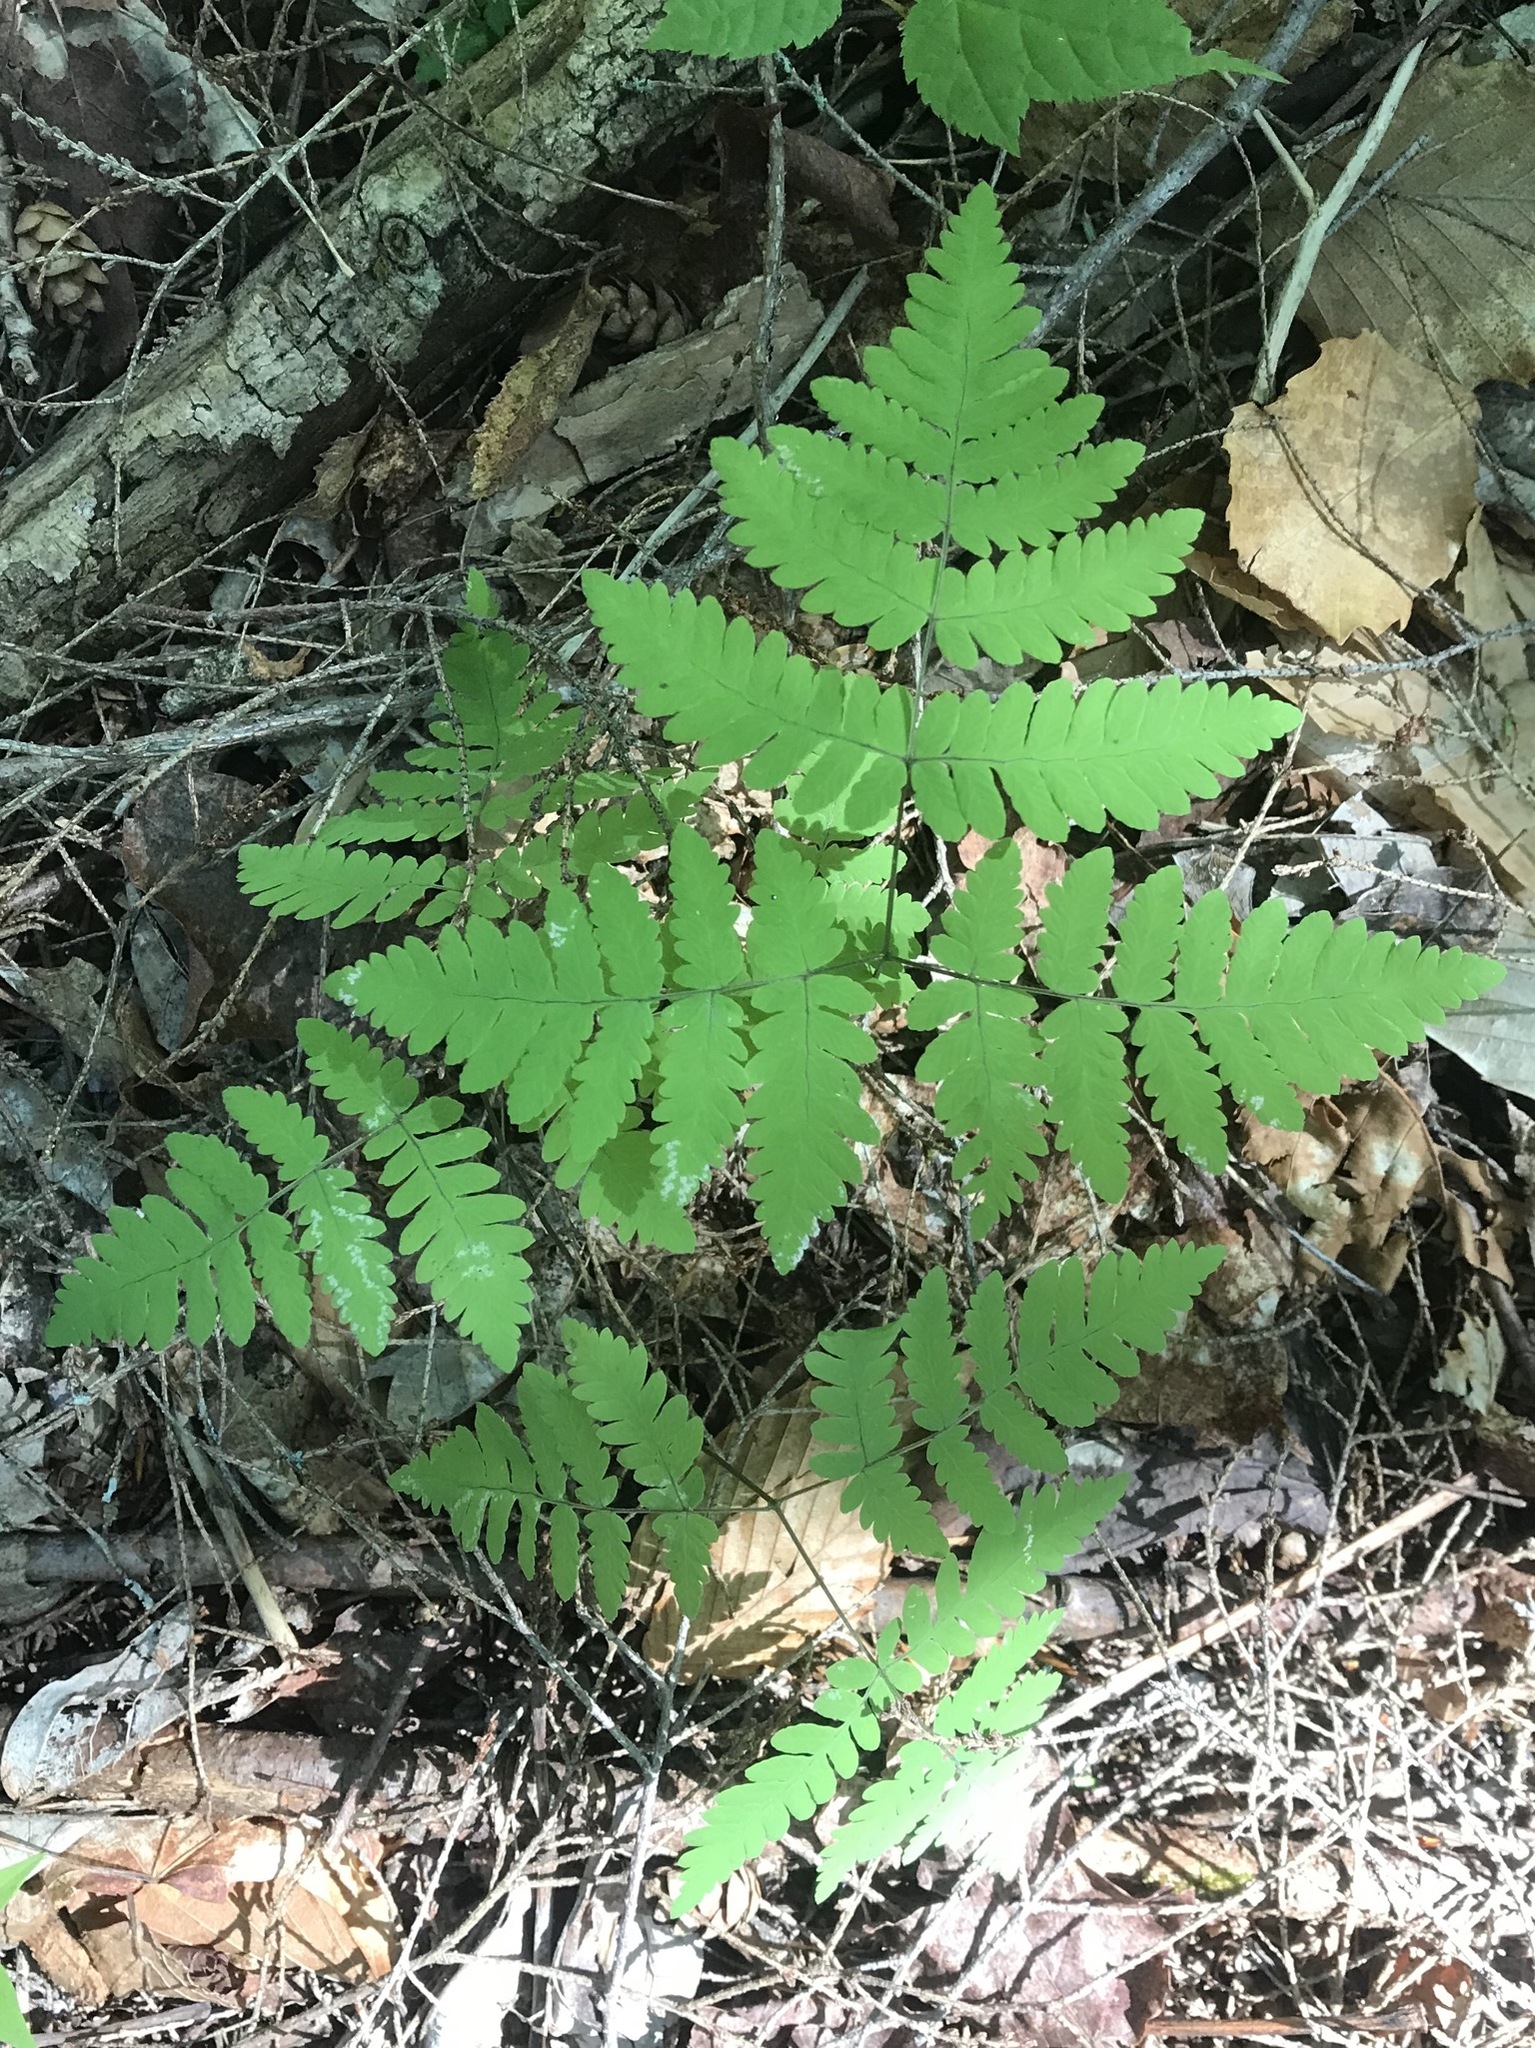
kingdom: Plantae
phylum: Tracheophyta
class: Polypodiopsida
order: Polypodiales
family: Cystopteridaceae
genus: Gymnocarpium
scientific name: Gymnocarpium dryopteris
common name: Oak fern
